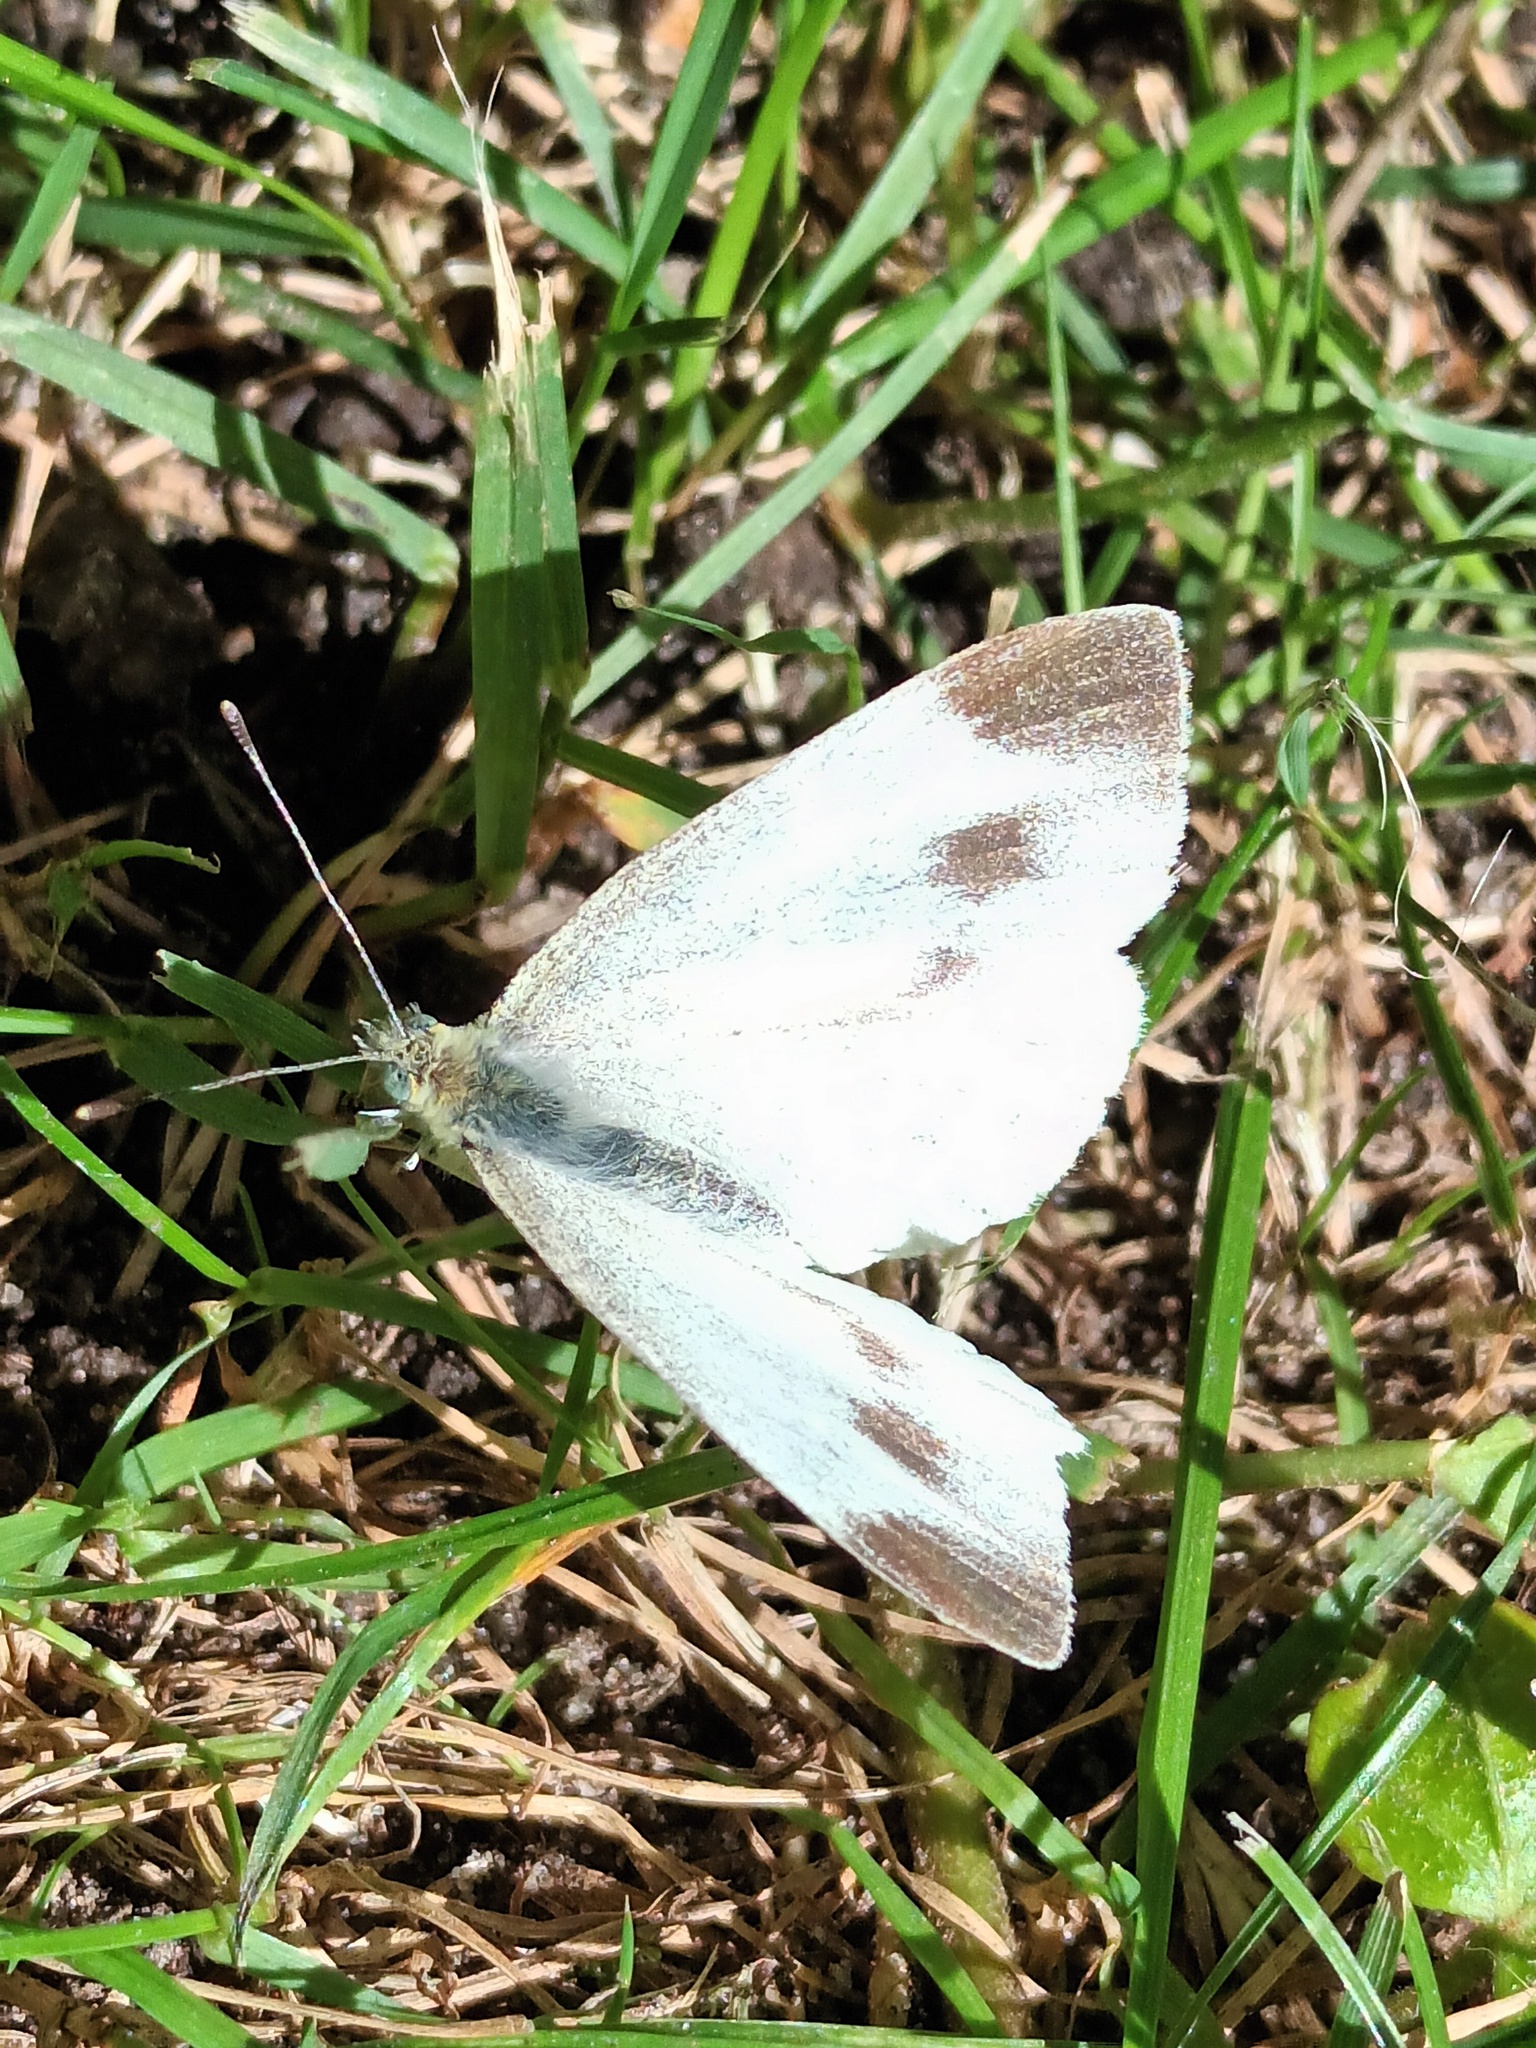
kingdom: Animalia
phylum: Arthropoda
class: Insecta
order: Lepidoptera
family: Pieridae
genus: Pieris
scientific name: Pieris mannii
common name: Southern small white
